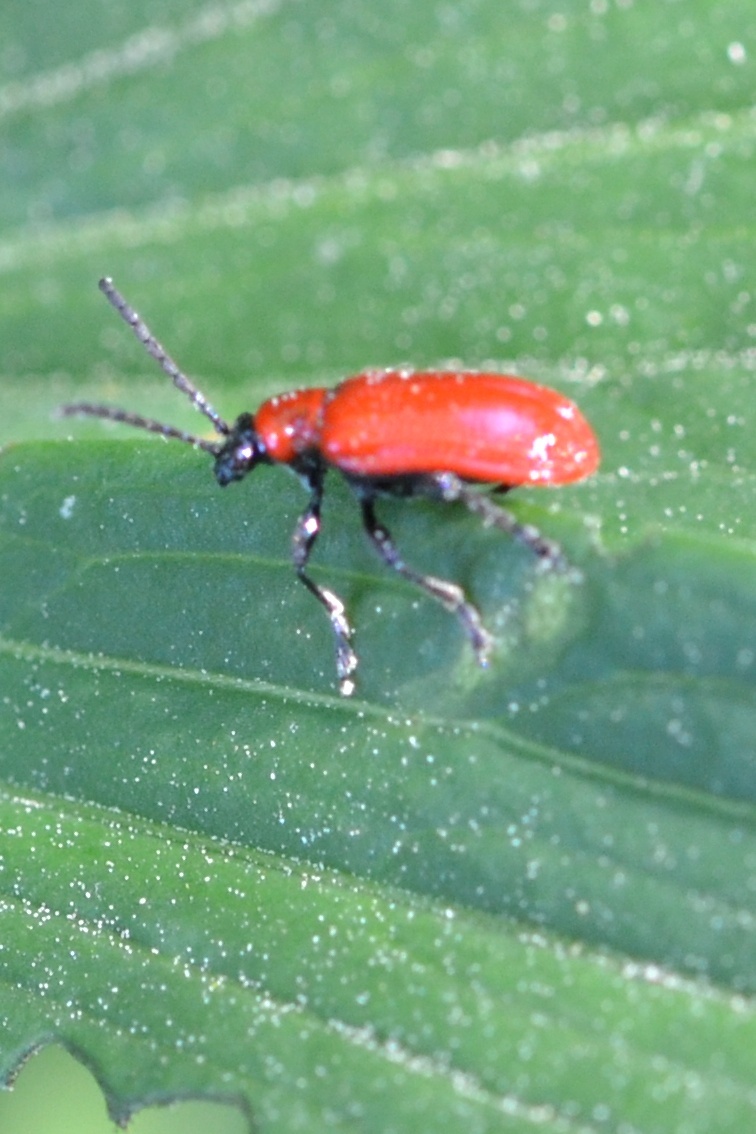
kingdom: Animalia
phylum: Arthropoda
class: Insecta
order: Coleoptera
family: Chrysomelidae
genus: Lilioceris
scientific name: Lilioceris lilii
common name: Lily beetle
